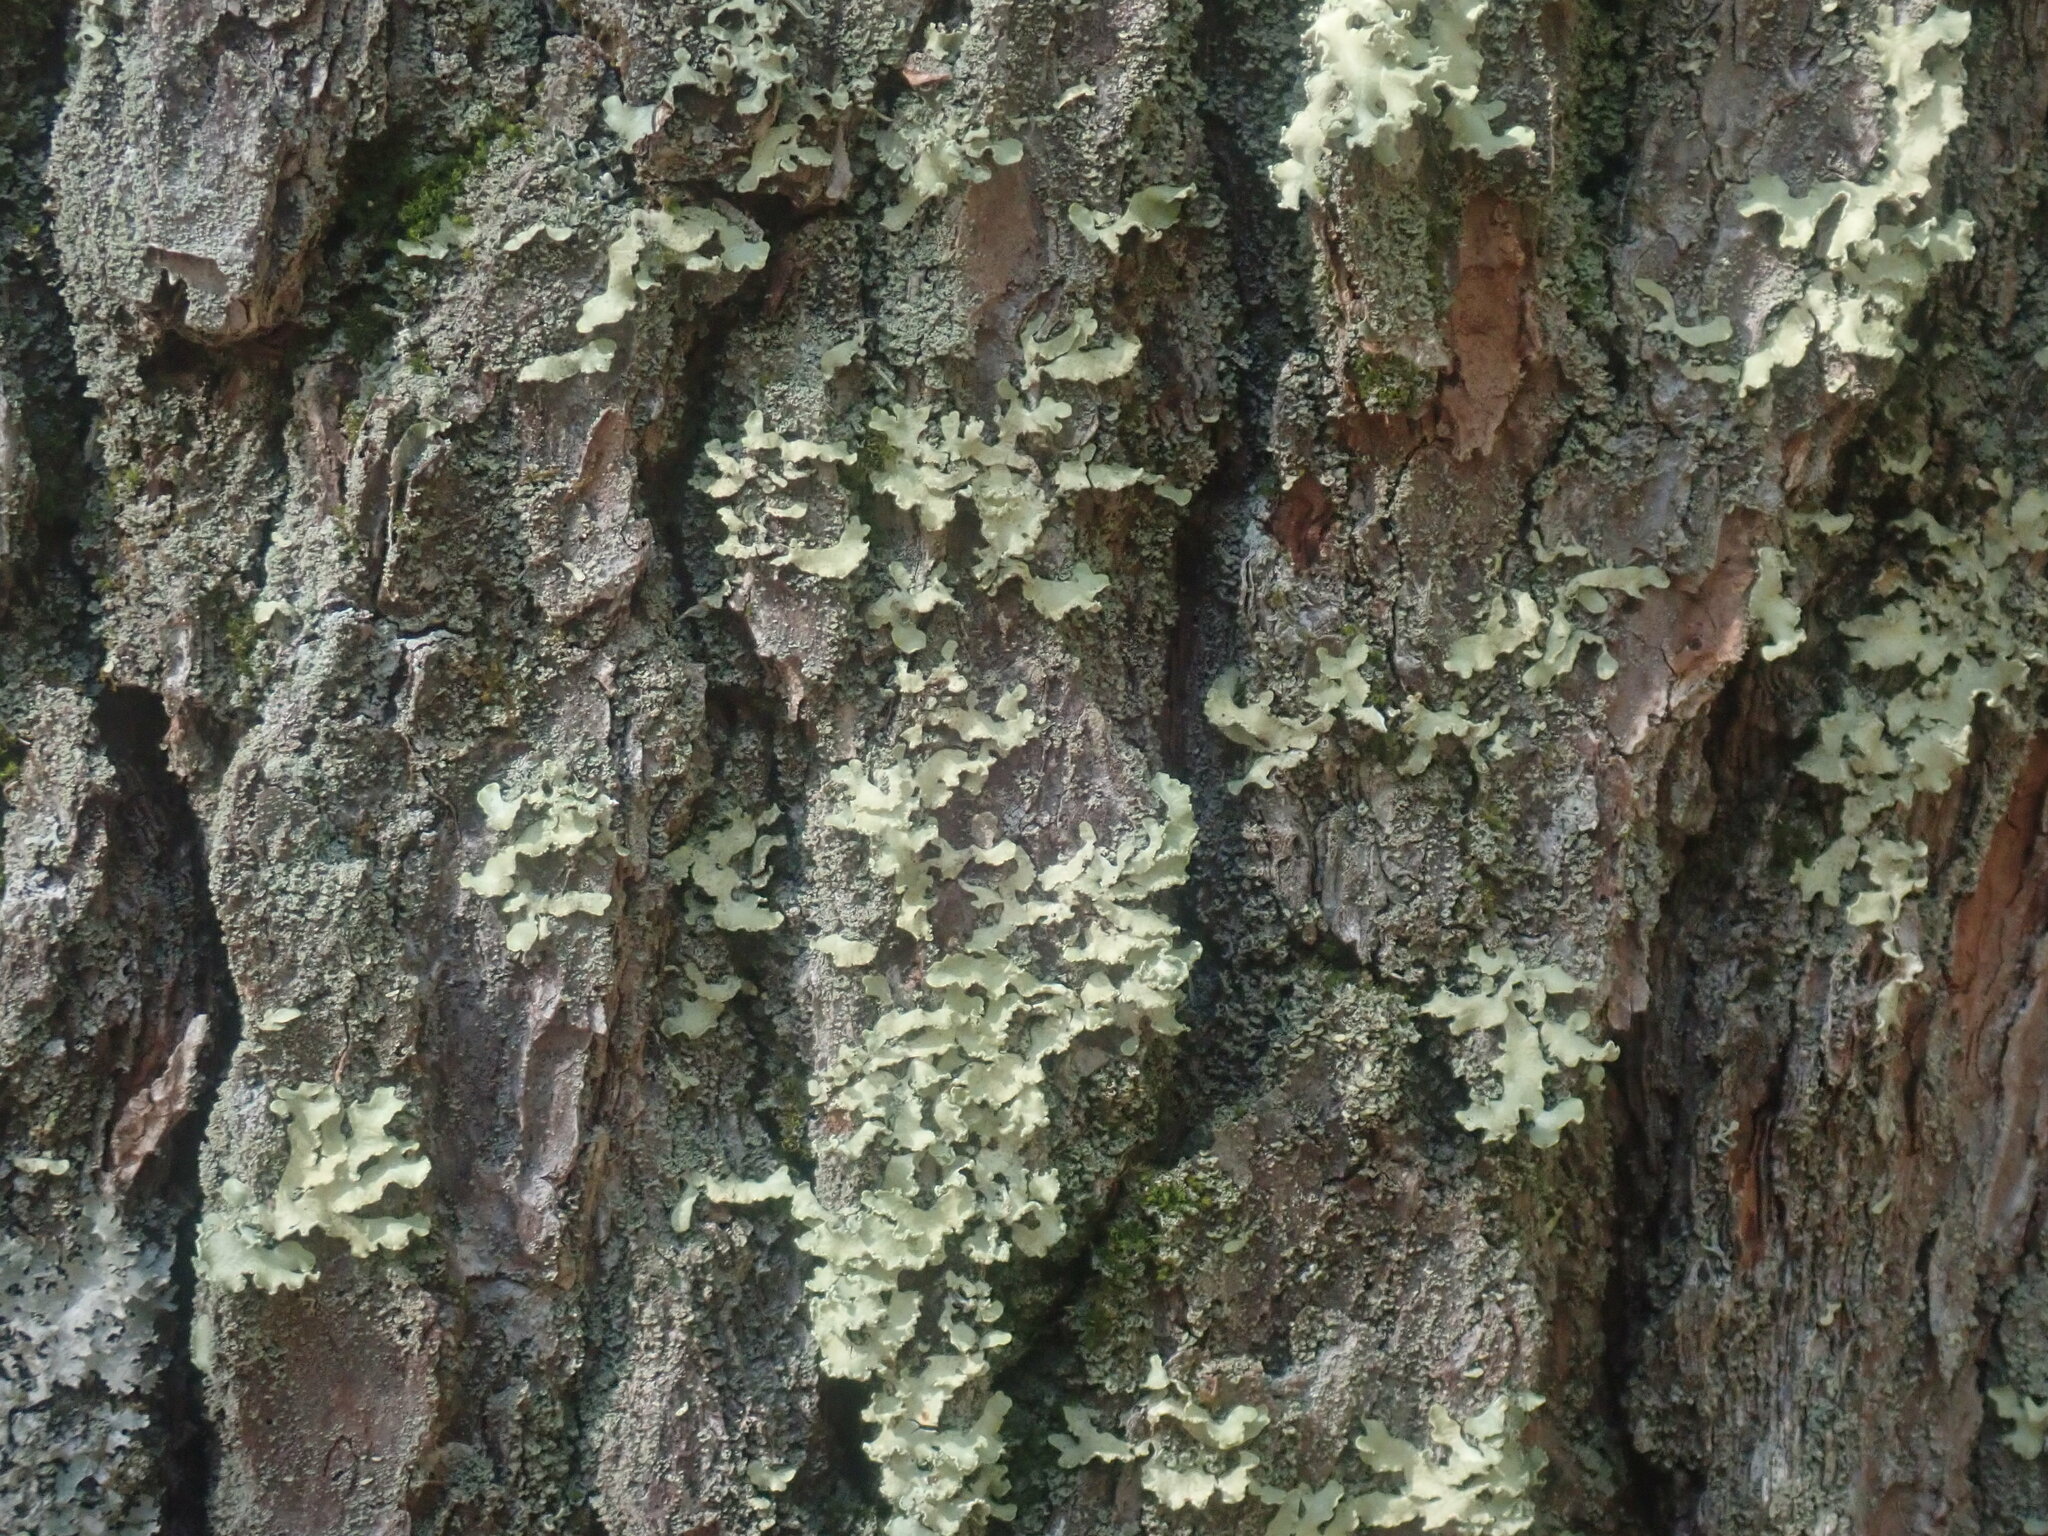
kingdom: Fungi
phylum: Ascomycota
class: Lecanoromycetes
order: Lecanorales
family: Parmeliaceae
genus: Usnocetraria
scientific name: Usnocetraria oakesiana
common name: Yellow ribbon lichen
